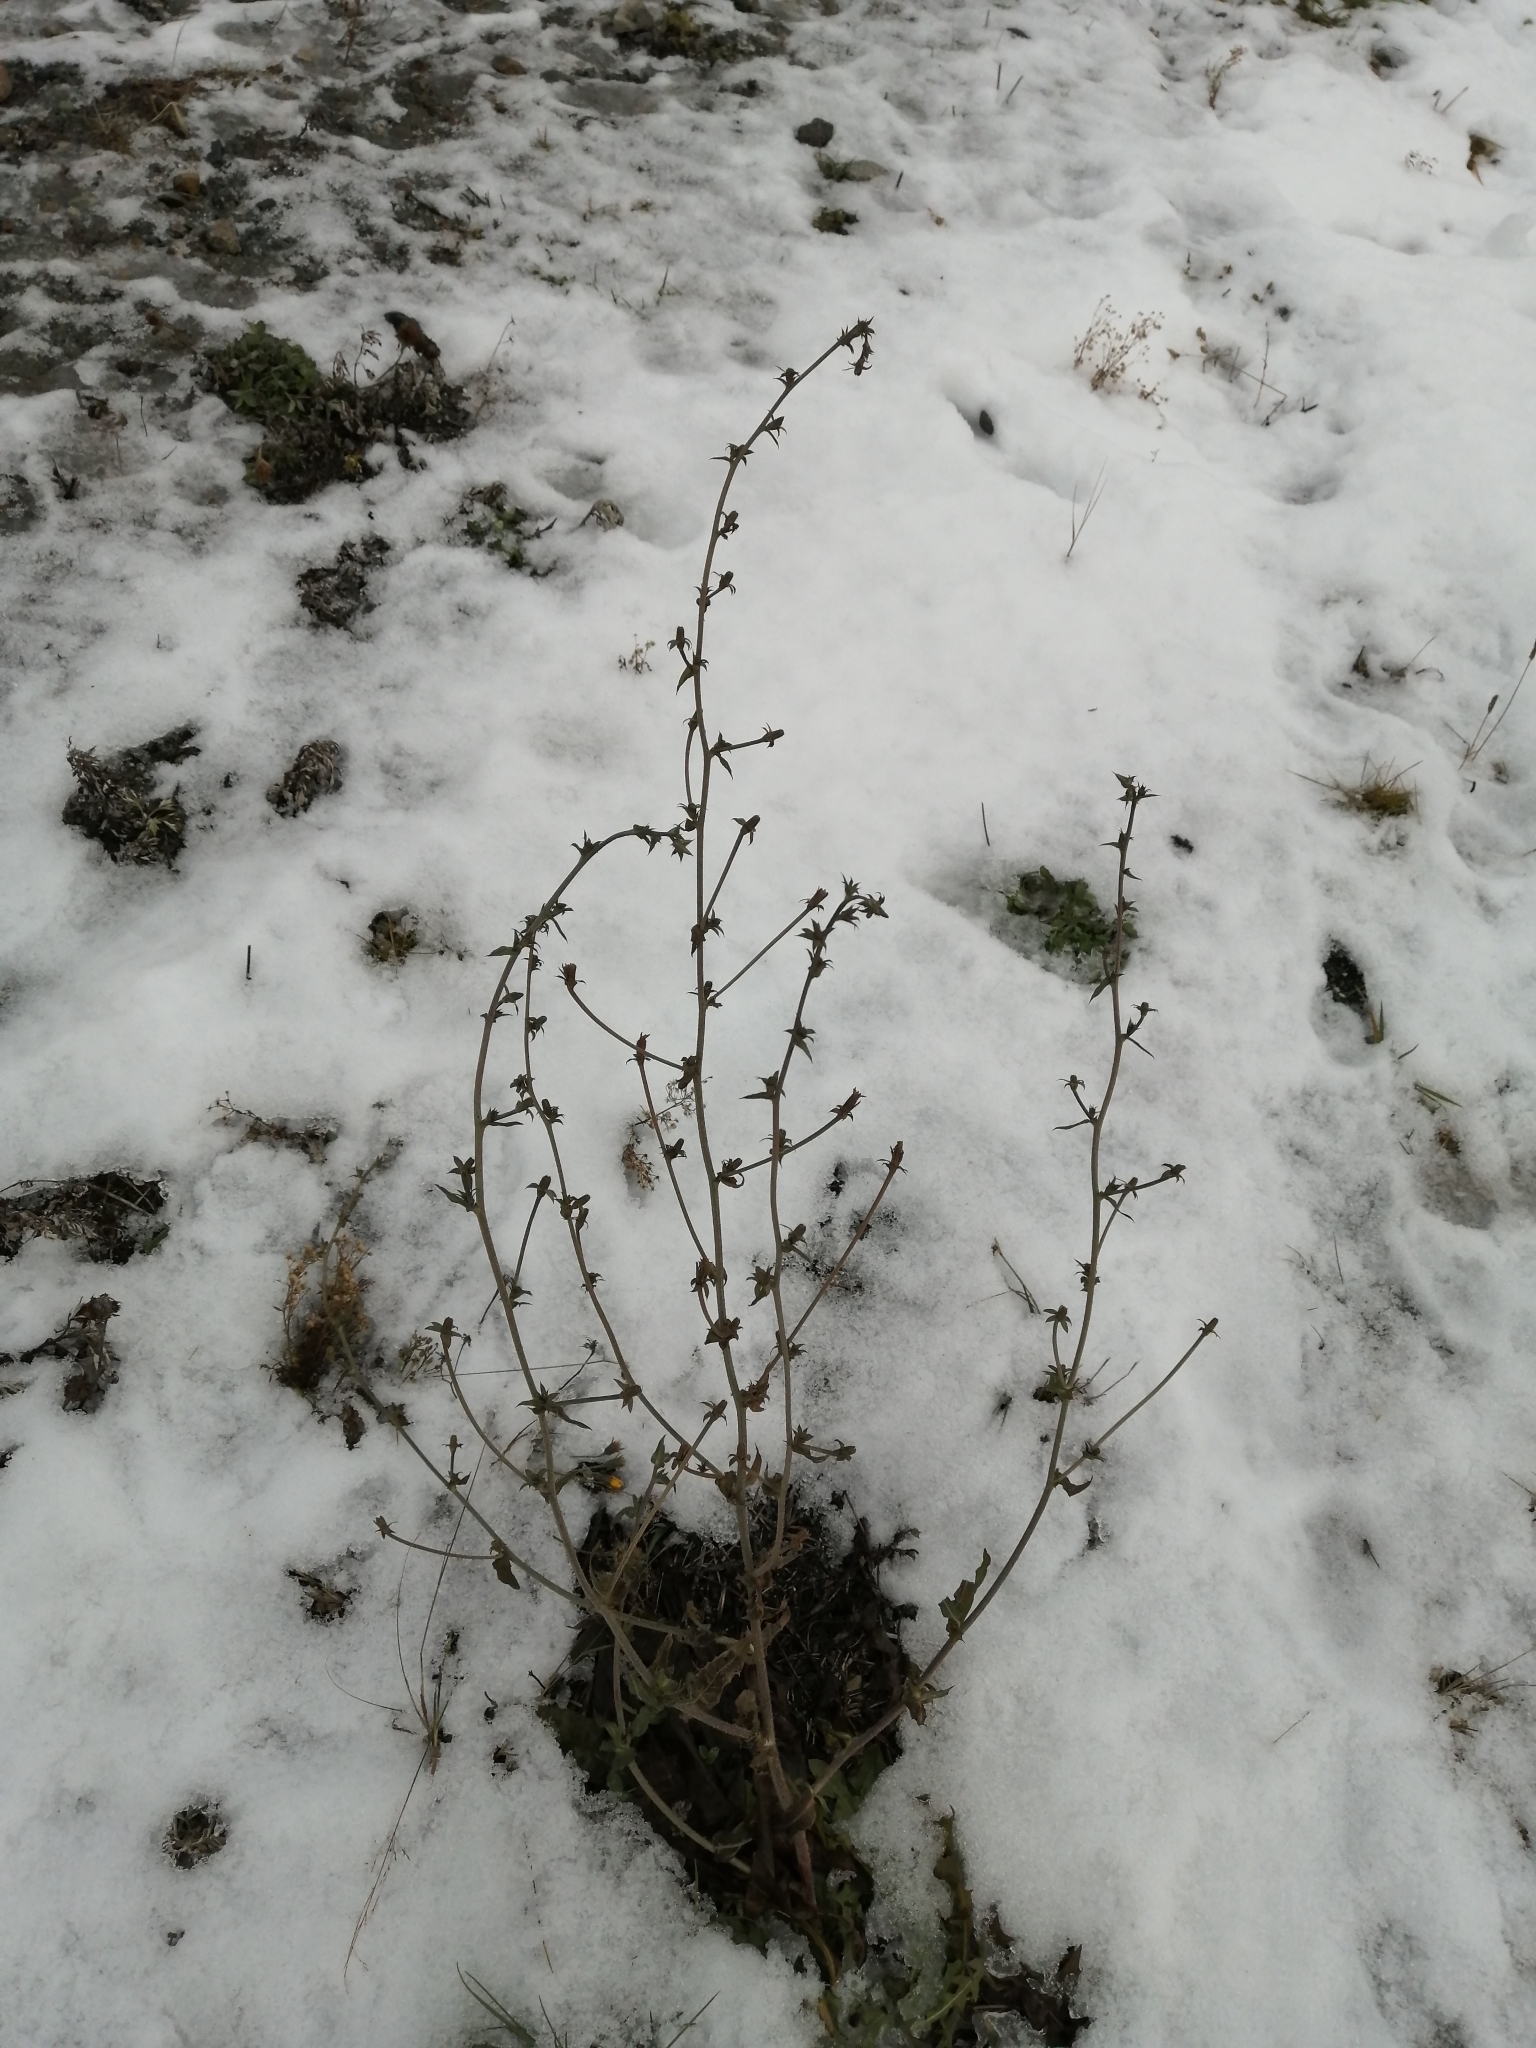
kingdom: Plantae
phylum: Tracheophyta
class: Magnoliopsida
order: Asterales
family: Asteraceae
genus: Cichorium
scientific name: Cichorium intybus
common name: Chicory
